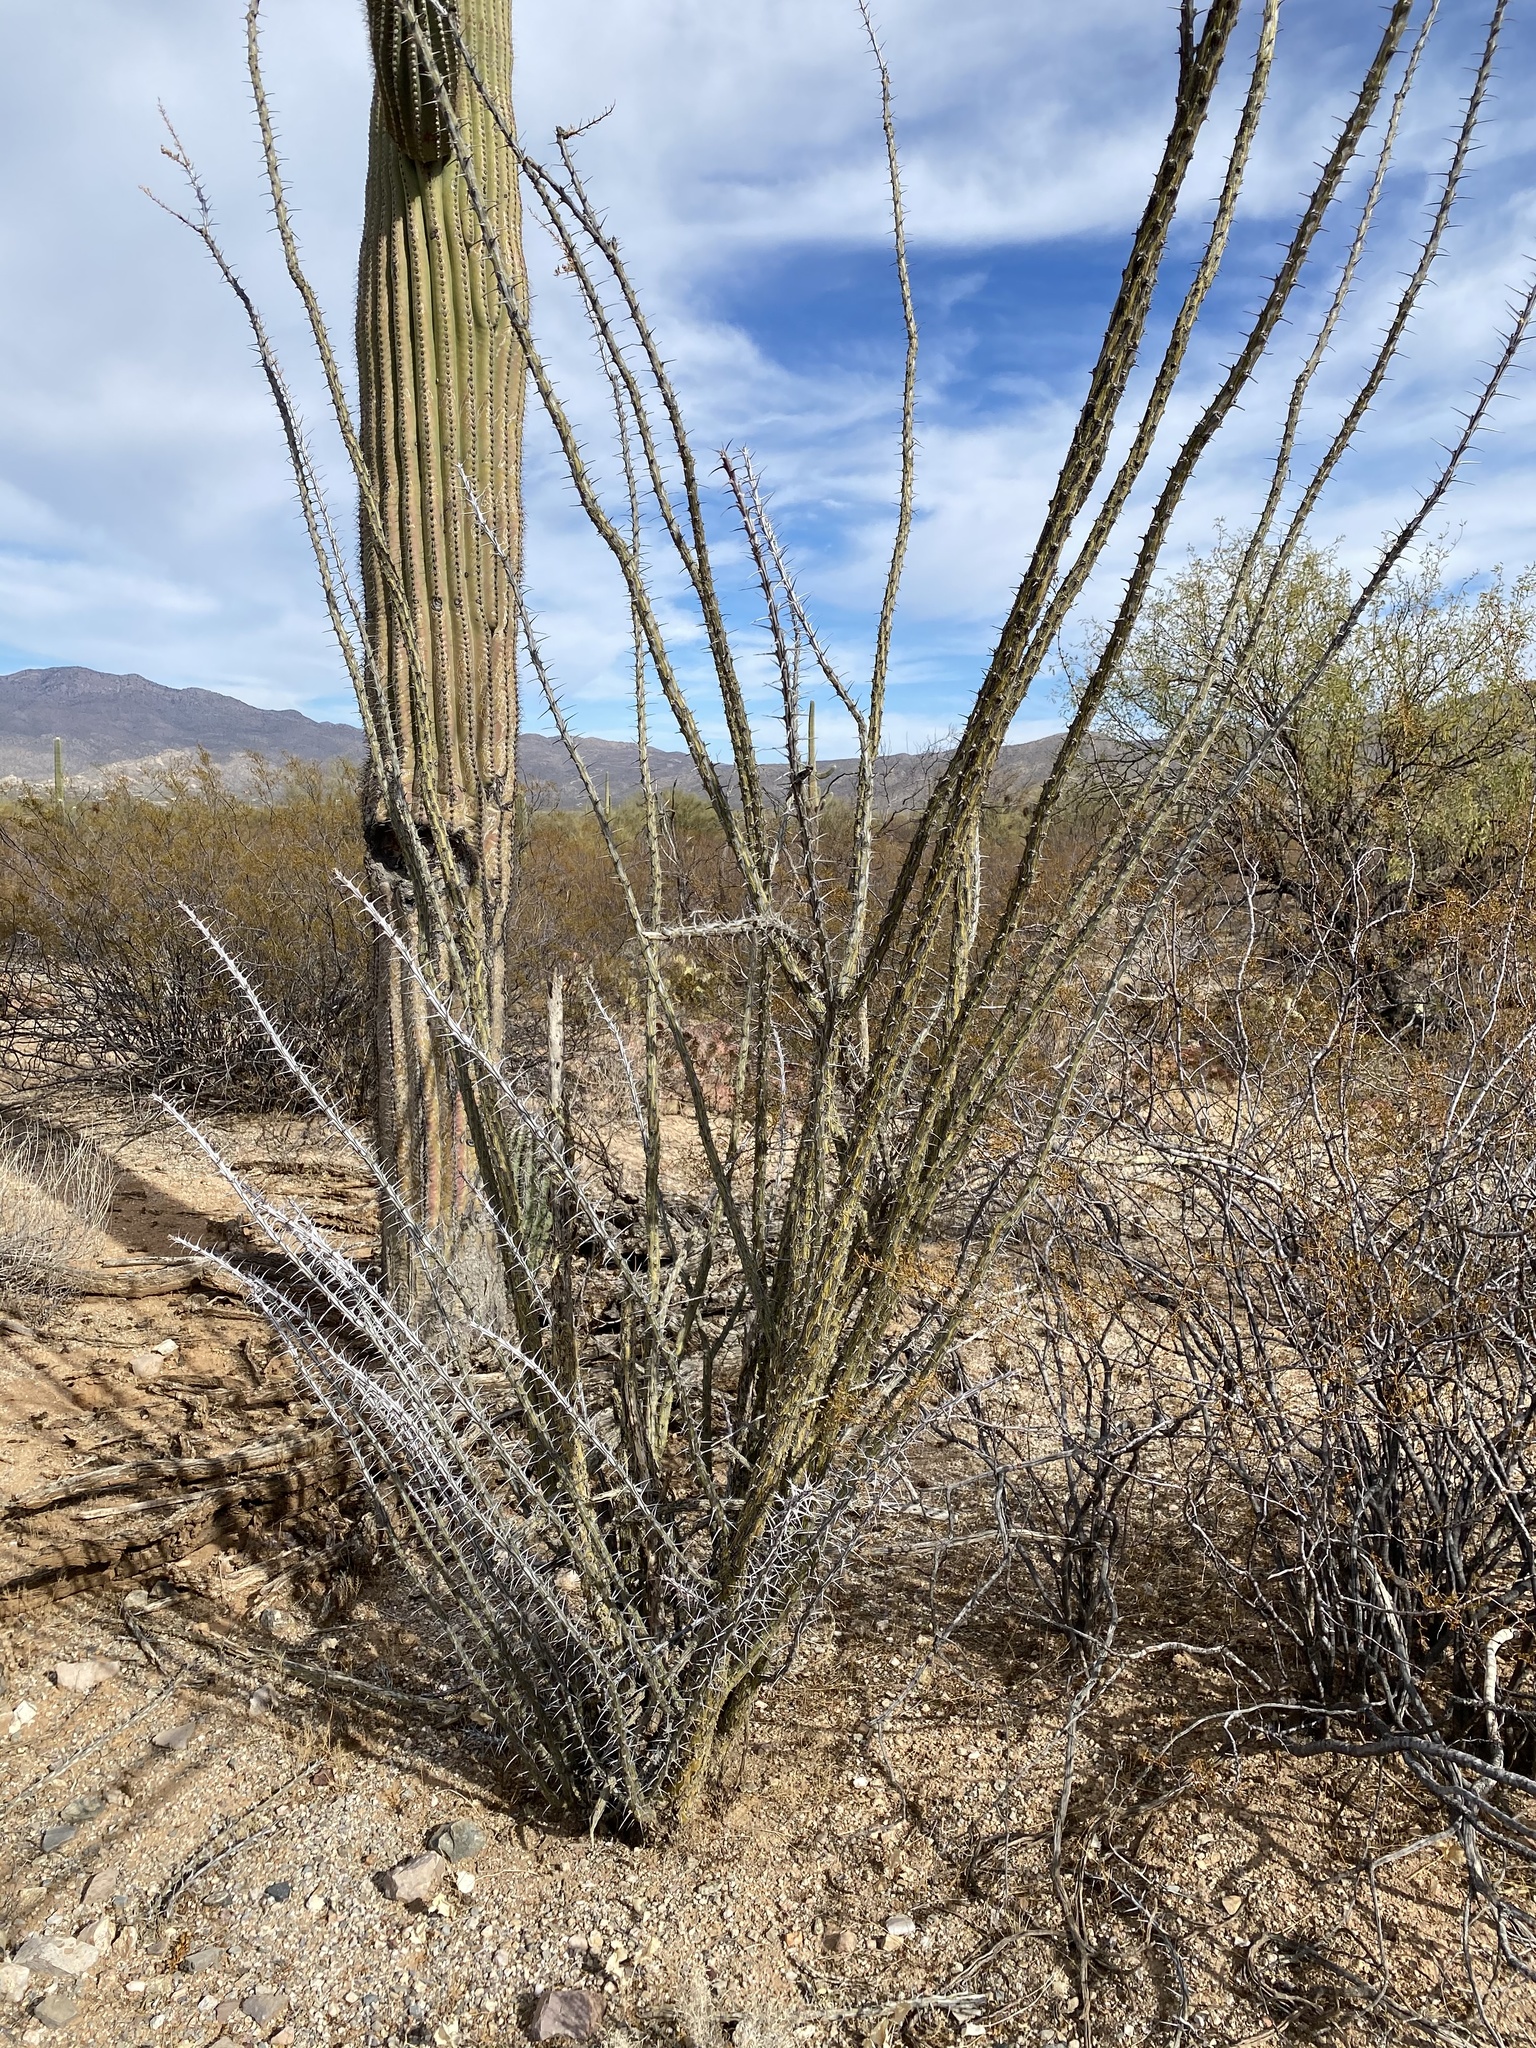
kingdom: Plantae
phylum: Tracheophyta
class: Magnoliopsida
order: Ericales
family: Fouquieriaceae
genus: Fouquieria
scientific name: Fouquieria splendens
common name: Vine-cactus
